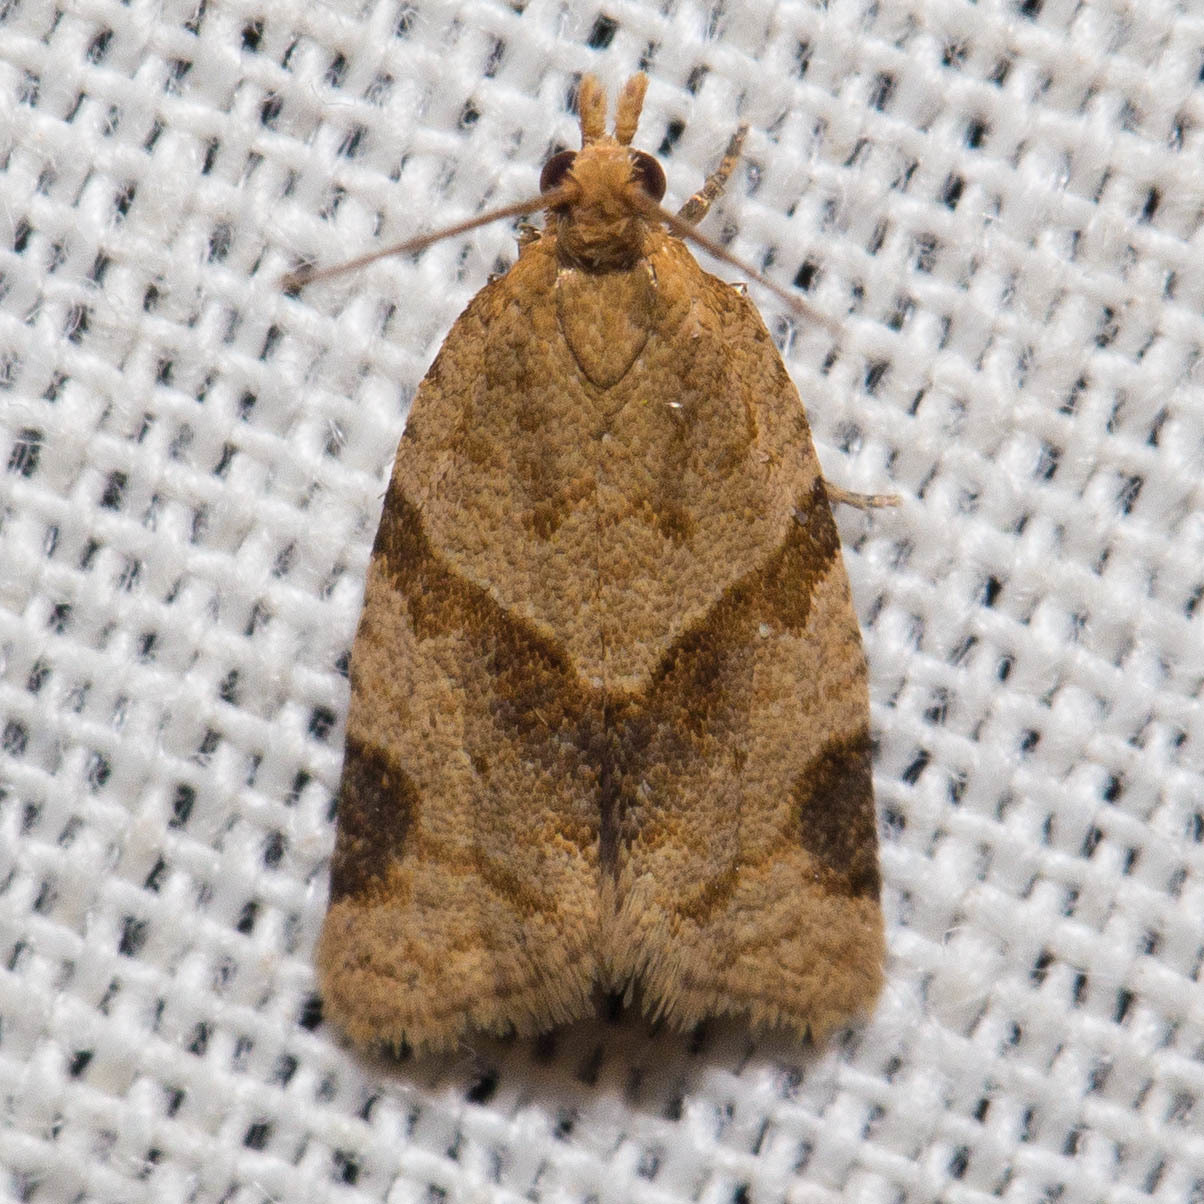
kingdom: Animalia
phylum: Arthropoda
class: Insecta
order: Lepidoptera
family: Tortricidae
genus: Clepsis
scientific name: Clepsis peritana
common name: Garden tortrix
